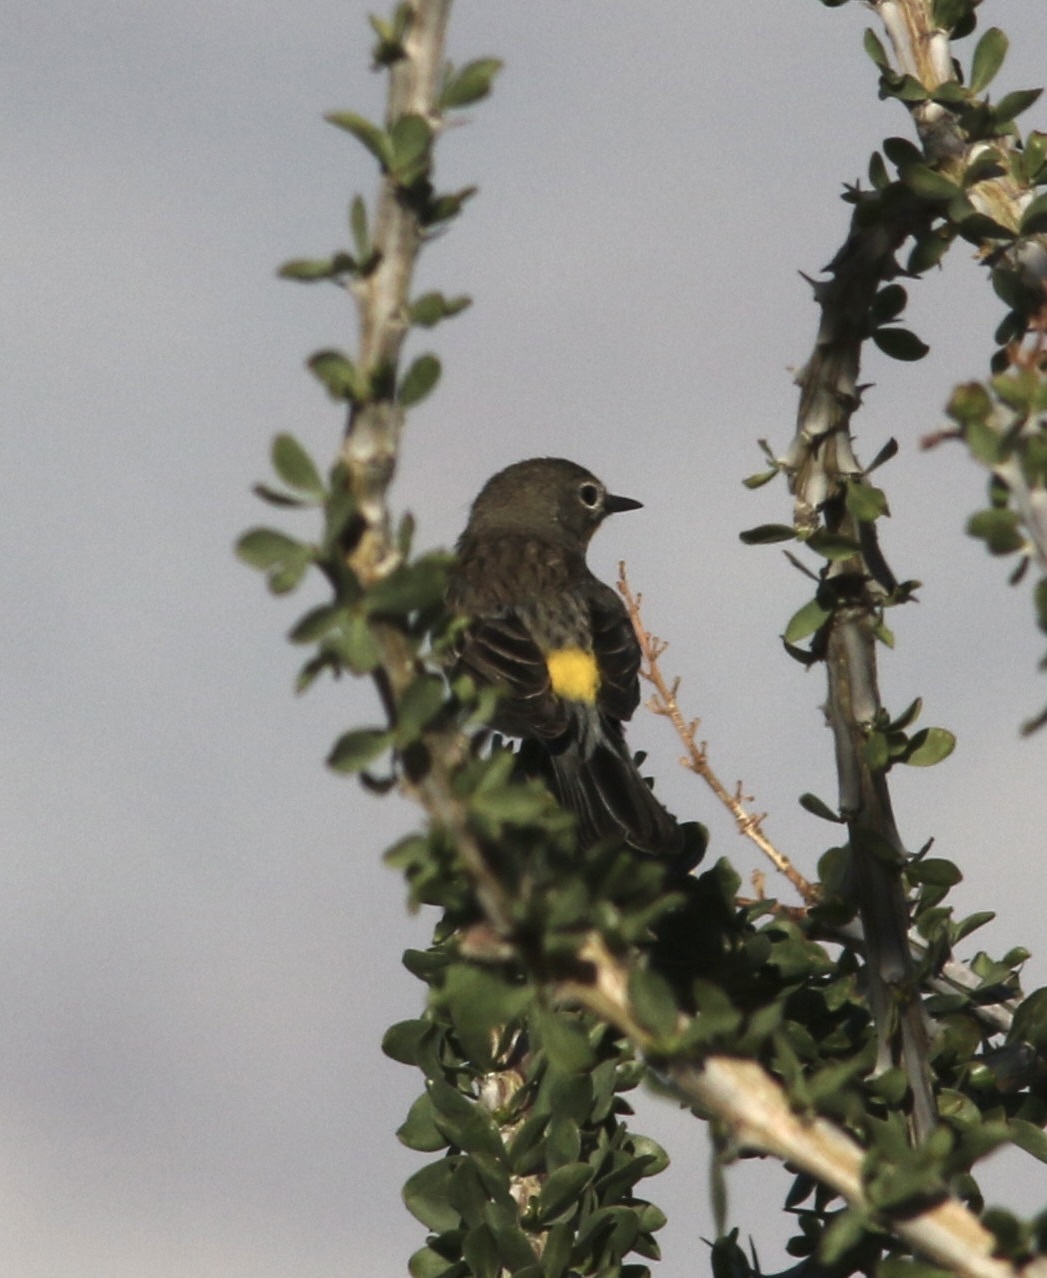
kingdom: Animalia
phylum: Chordata
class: Aves
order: Passeriformes
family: Parulidae
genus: Setophaga
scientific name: Setophaga coronata
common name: Myrtle warbler
